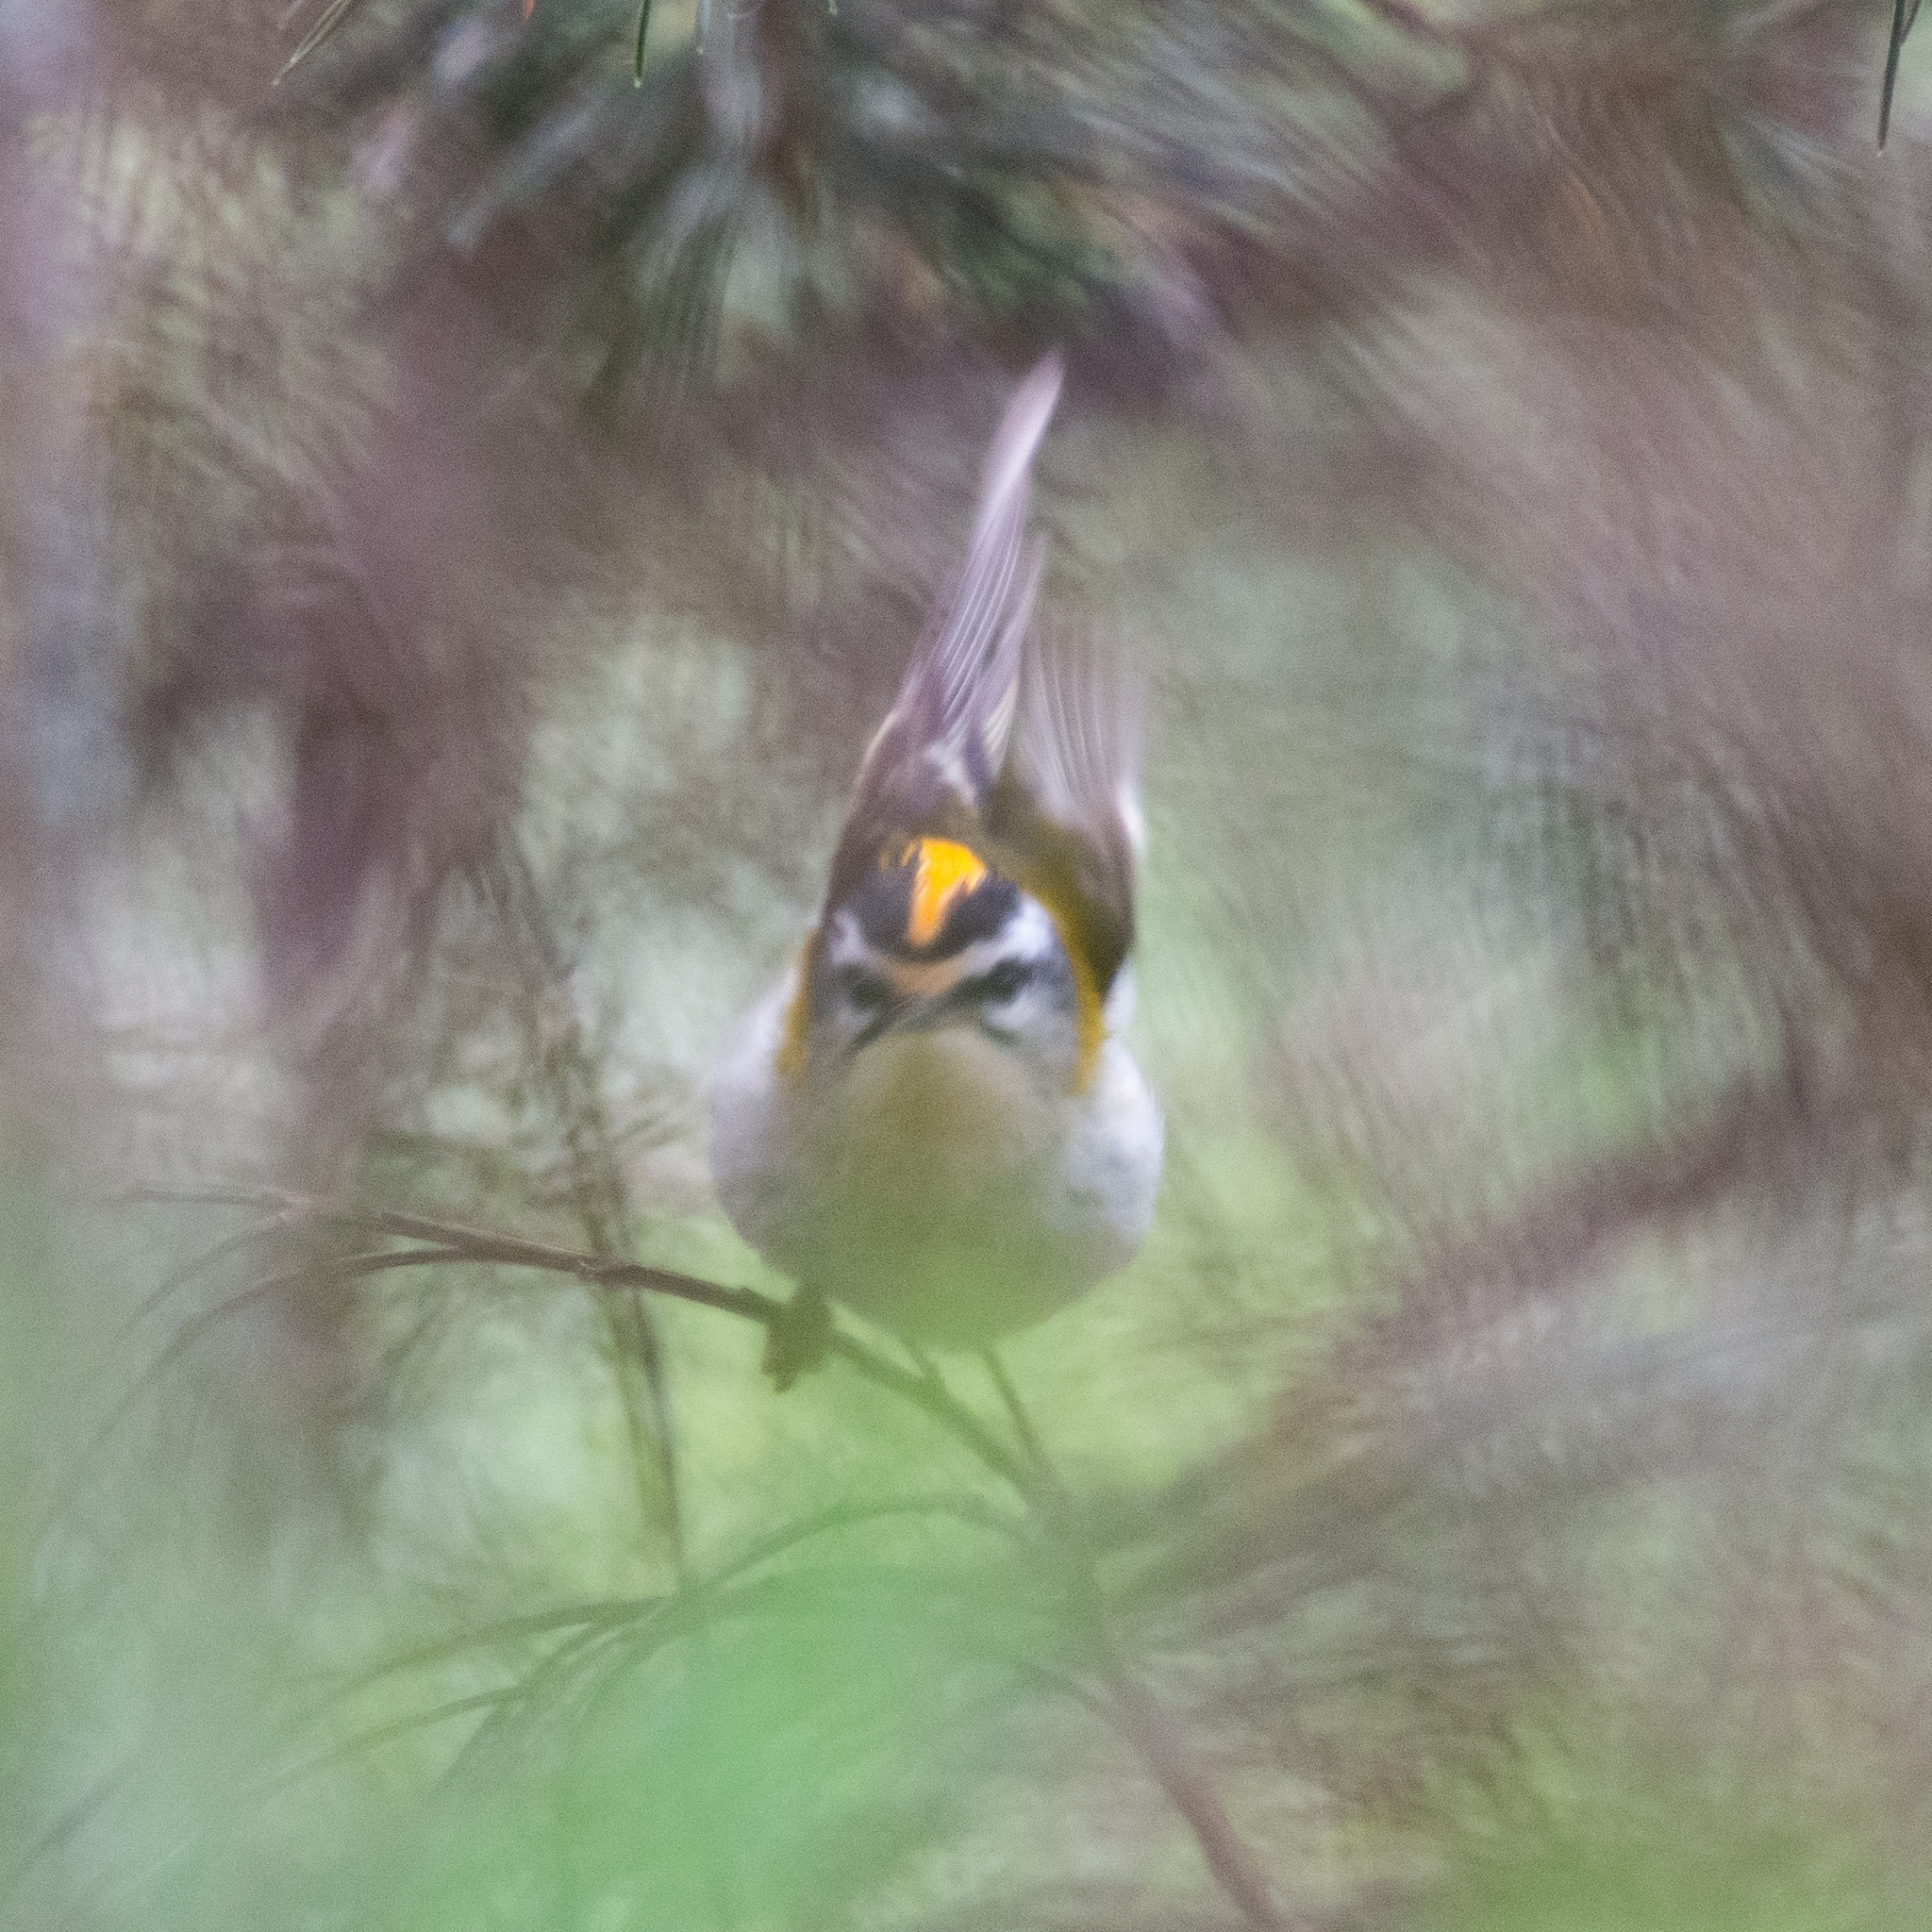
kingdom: Animalia
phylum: Chordata
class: Aves
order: Passeriformes
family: Regulidae
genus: Regulus
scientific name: Regulus ignicapilla
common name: Firecrest
